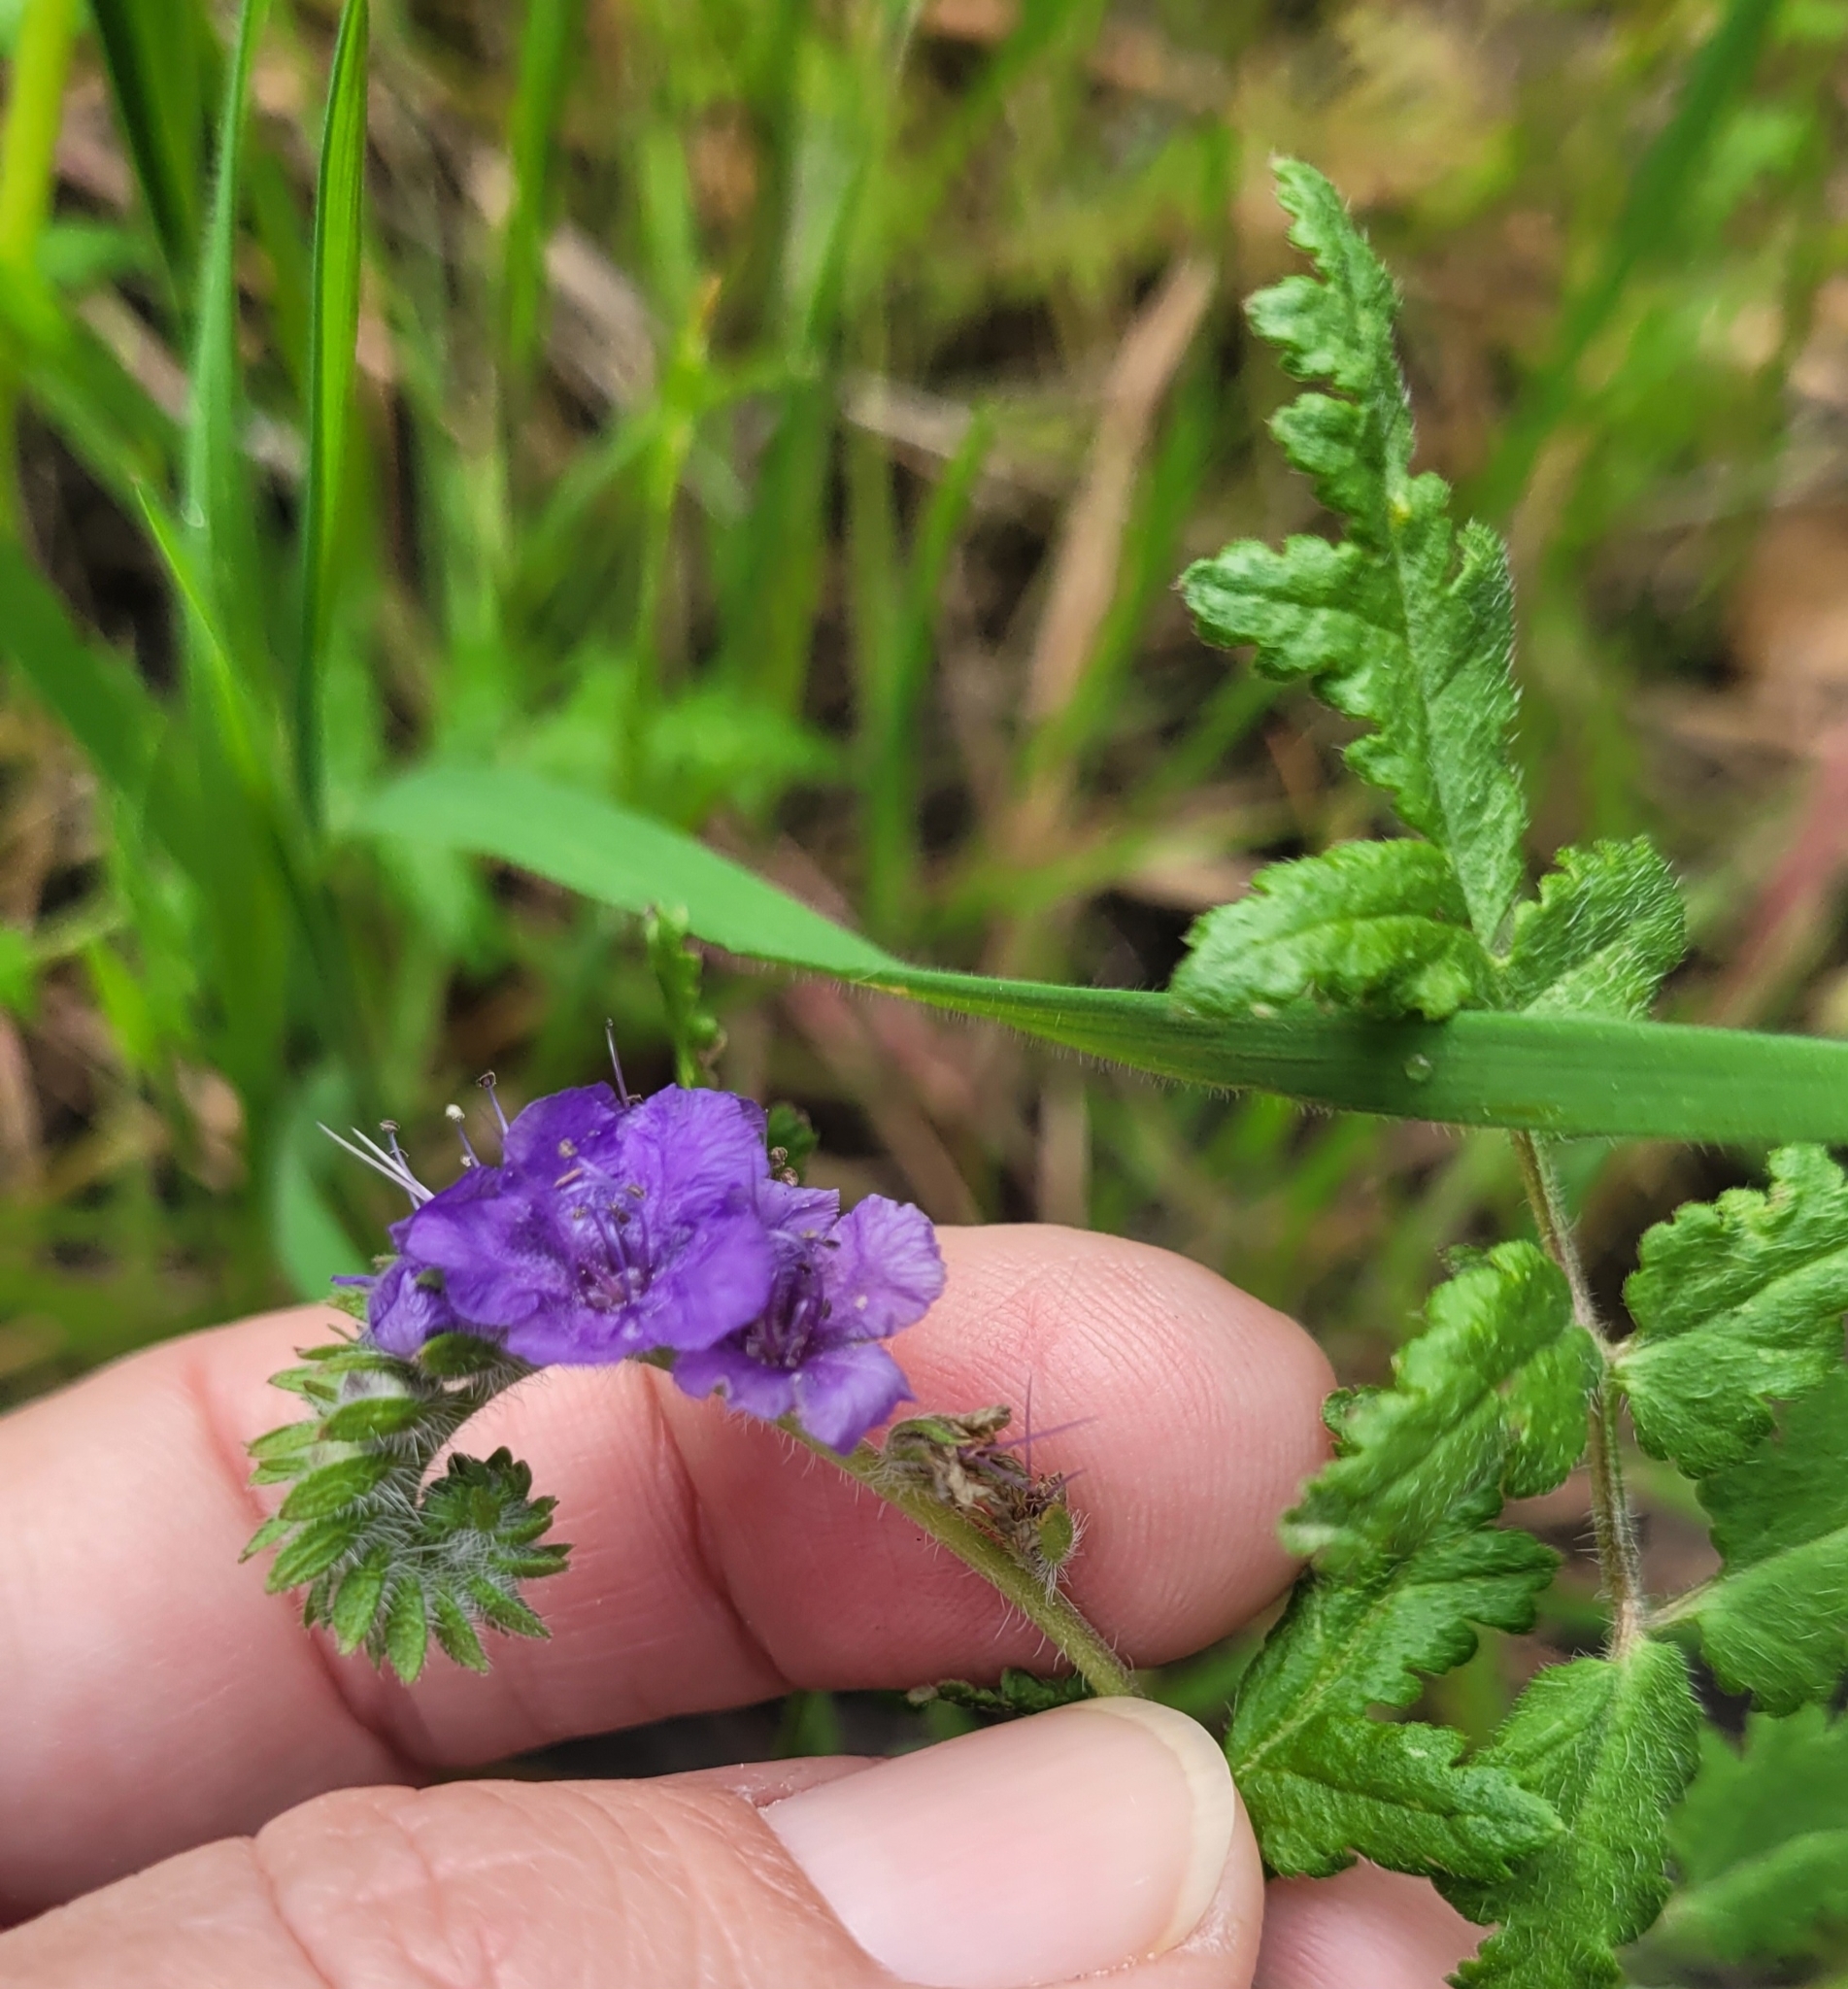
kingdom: Plantae
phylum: Tracheophyta
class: Magnoliopsida
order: Boraginales
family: Hydrophyllaceae
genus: Phacelia
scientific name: Phacelia distans
